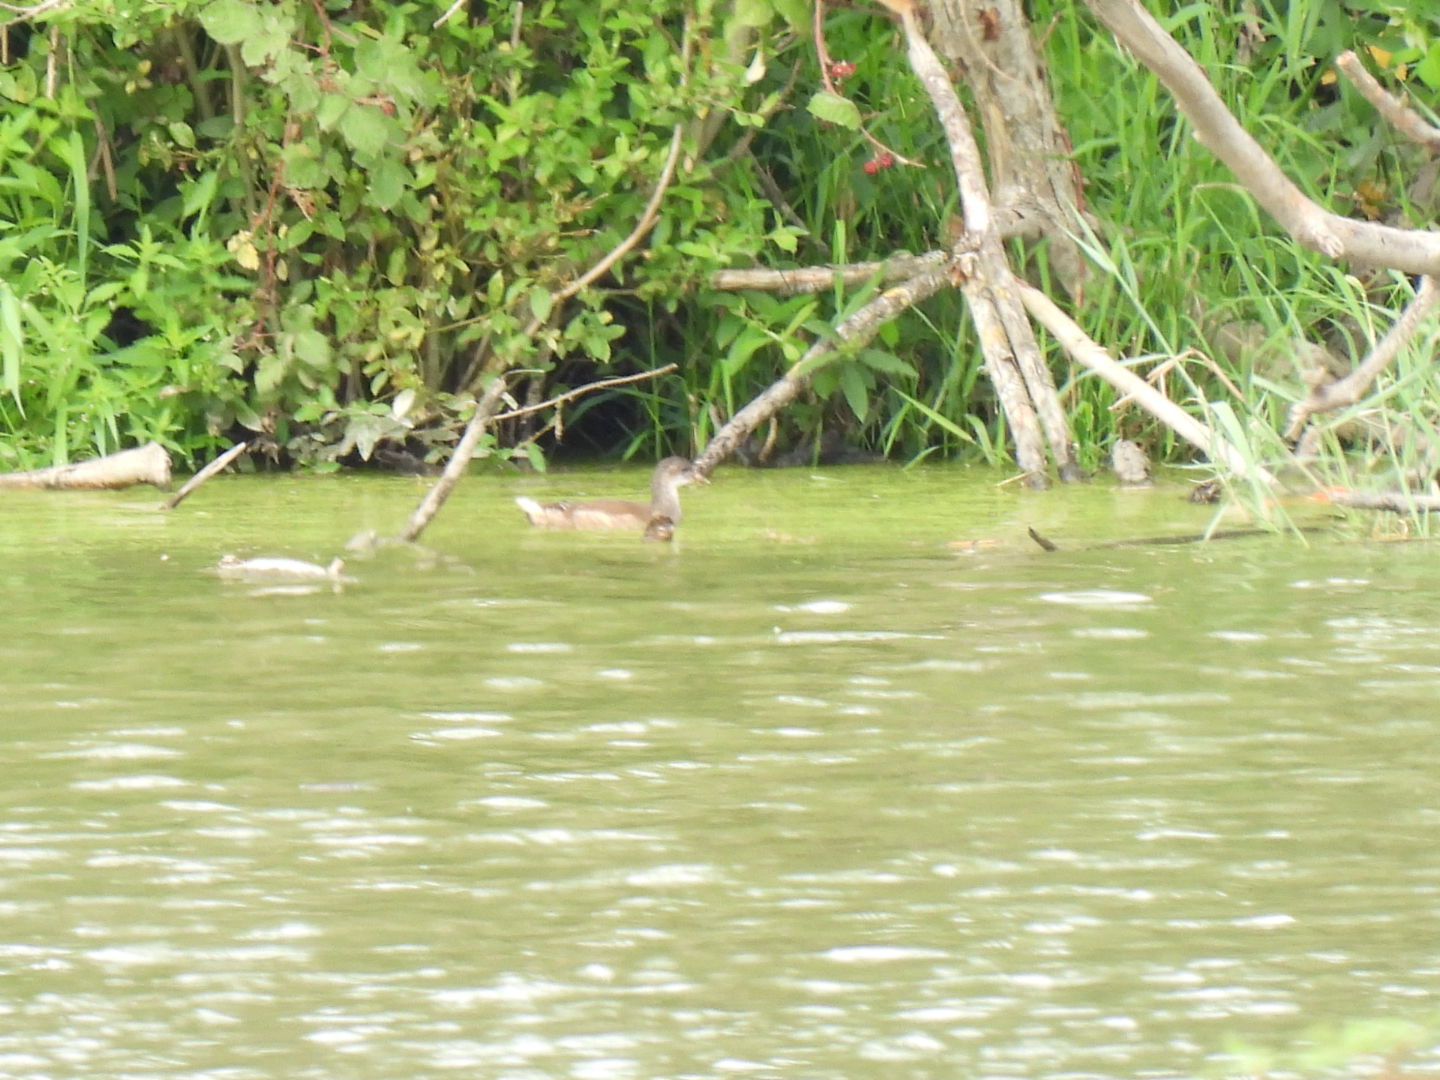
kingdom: Animalia
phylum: Chordata
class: Aves
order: Gruiformes
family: Rallidae
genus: Gallinula
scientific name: Gallinula chloropus
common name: Common moorhen
